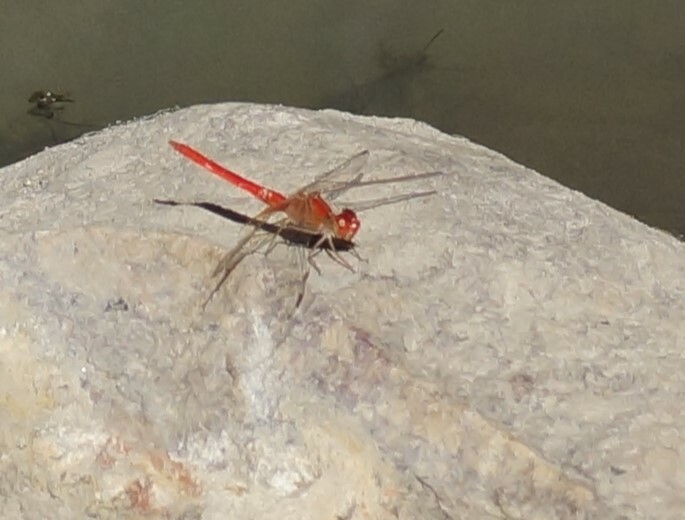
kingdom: Animalia
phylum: Arthropoda
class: Insecta
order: Odonata
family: Libellulidae
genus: Diplacodes
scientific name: Diplacodes haematodes
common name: Scarlet percher
